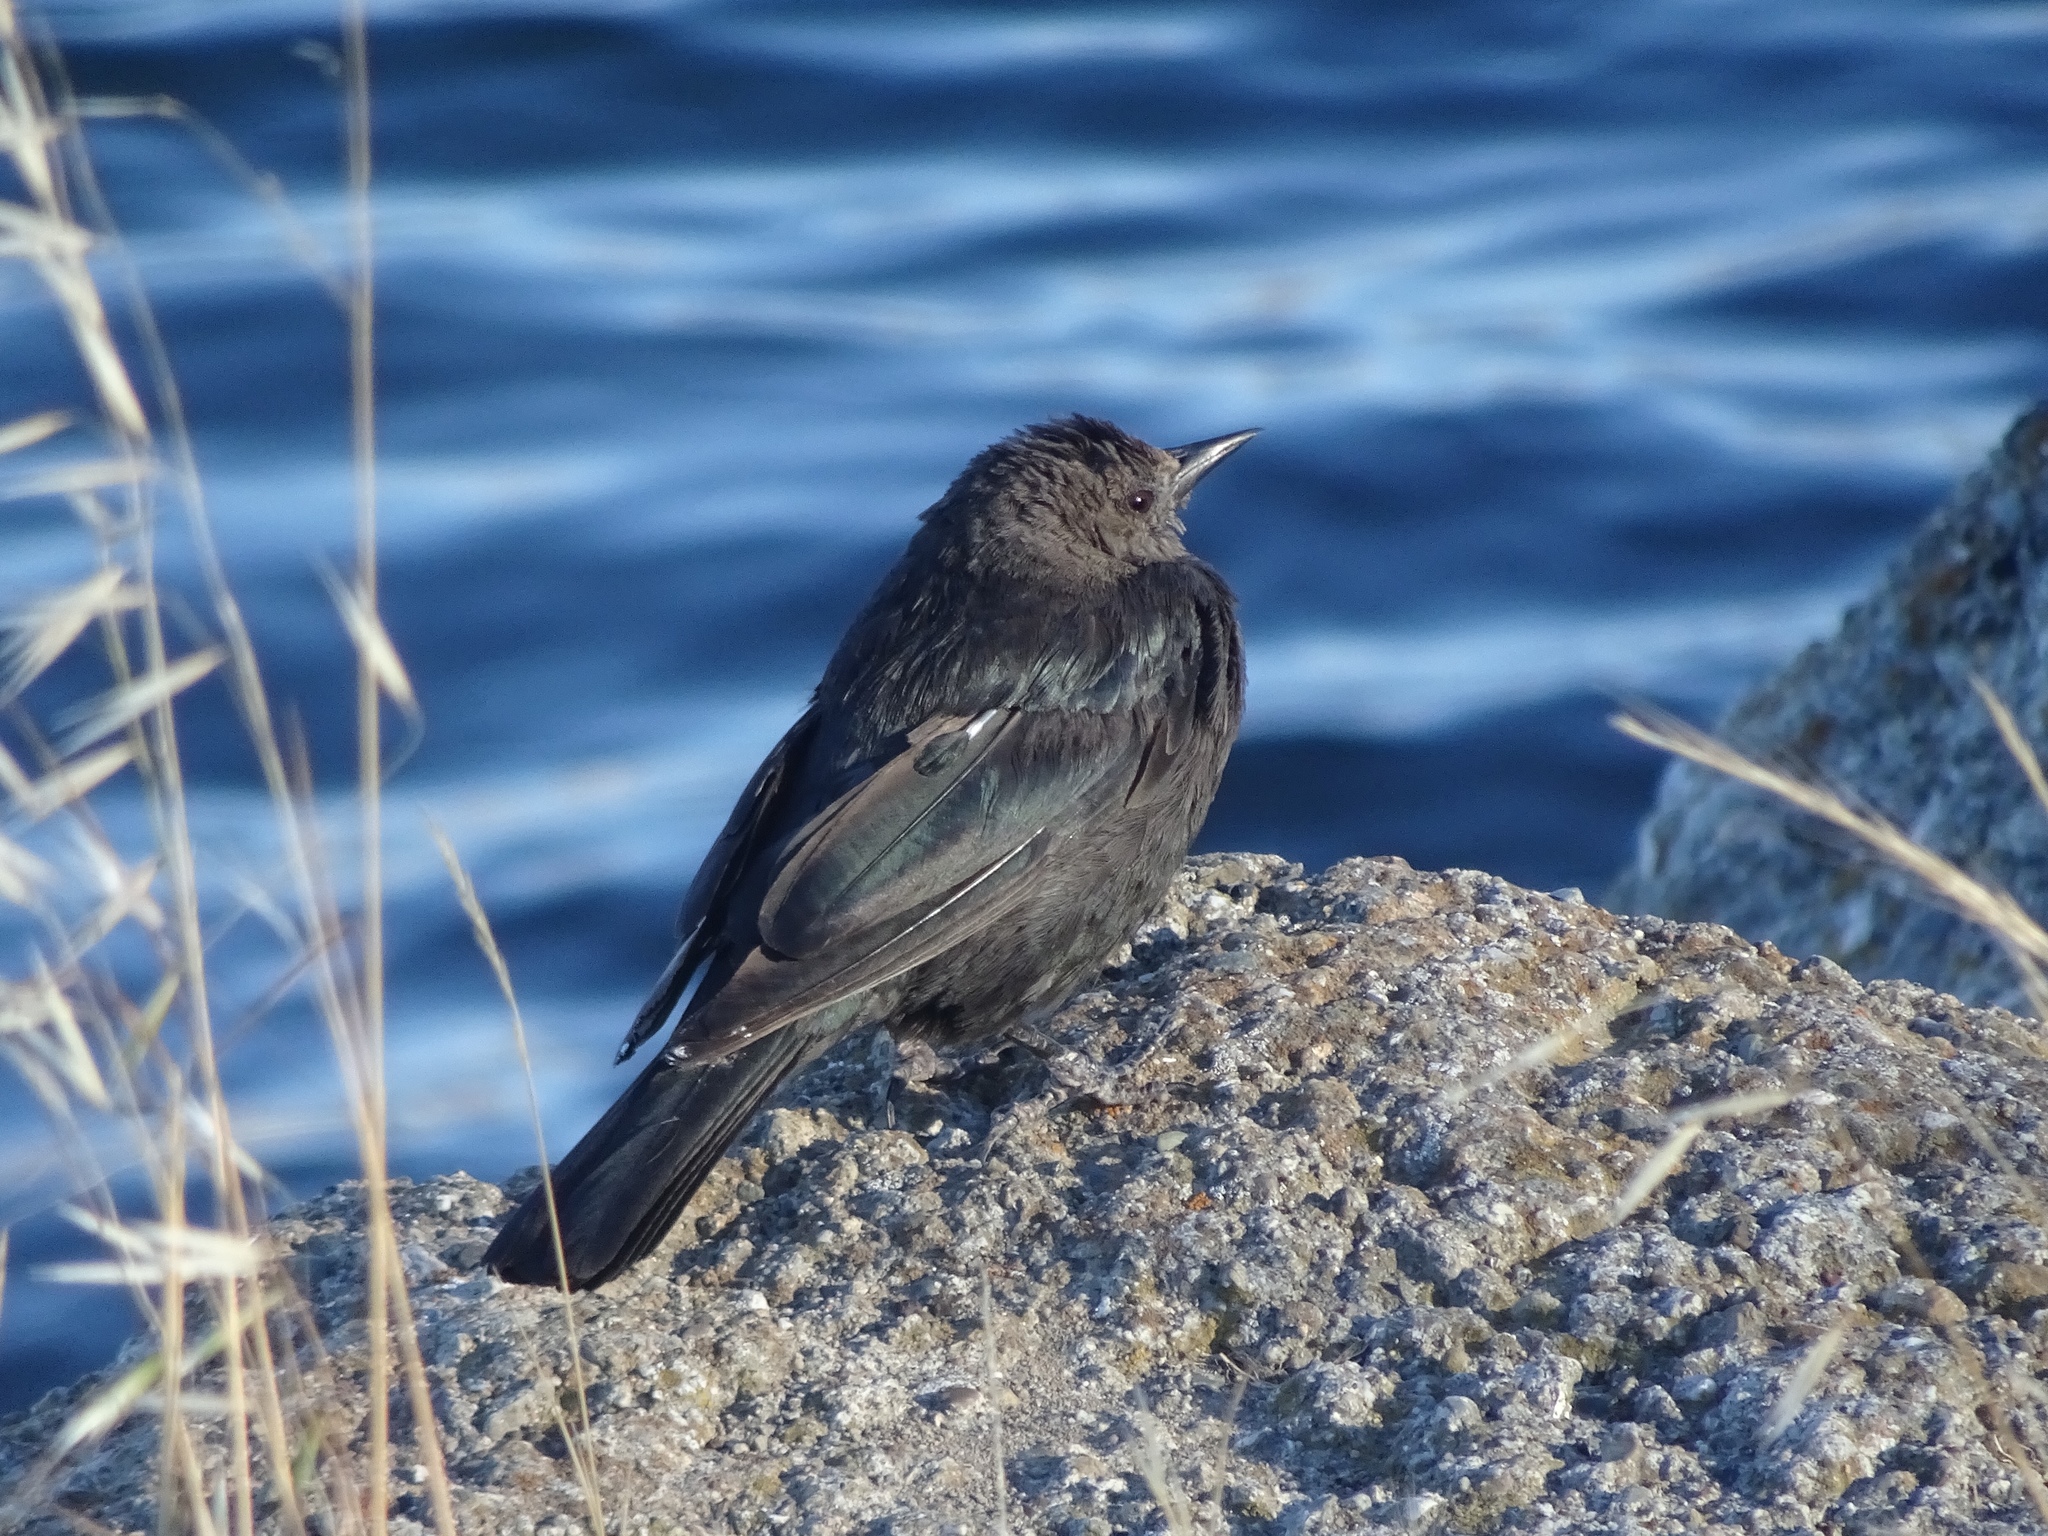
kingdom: Animalia
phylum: Chordata
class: Aves
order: Passeriformes
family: Icteridae
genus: Euphagus
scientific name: Euphagus cyanocephalus
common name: Brewer's blackbird
